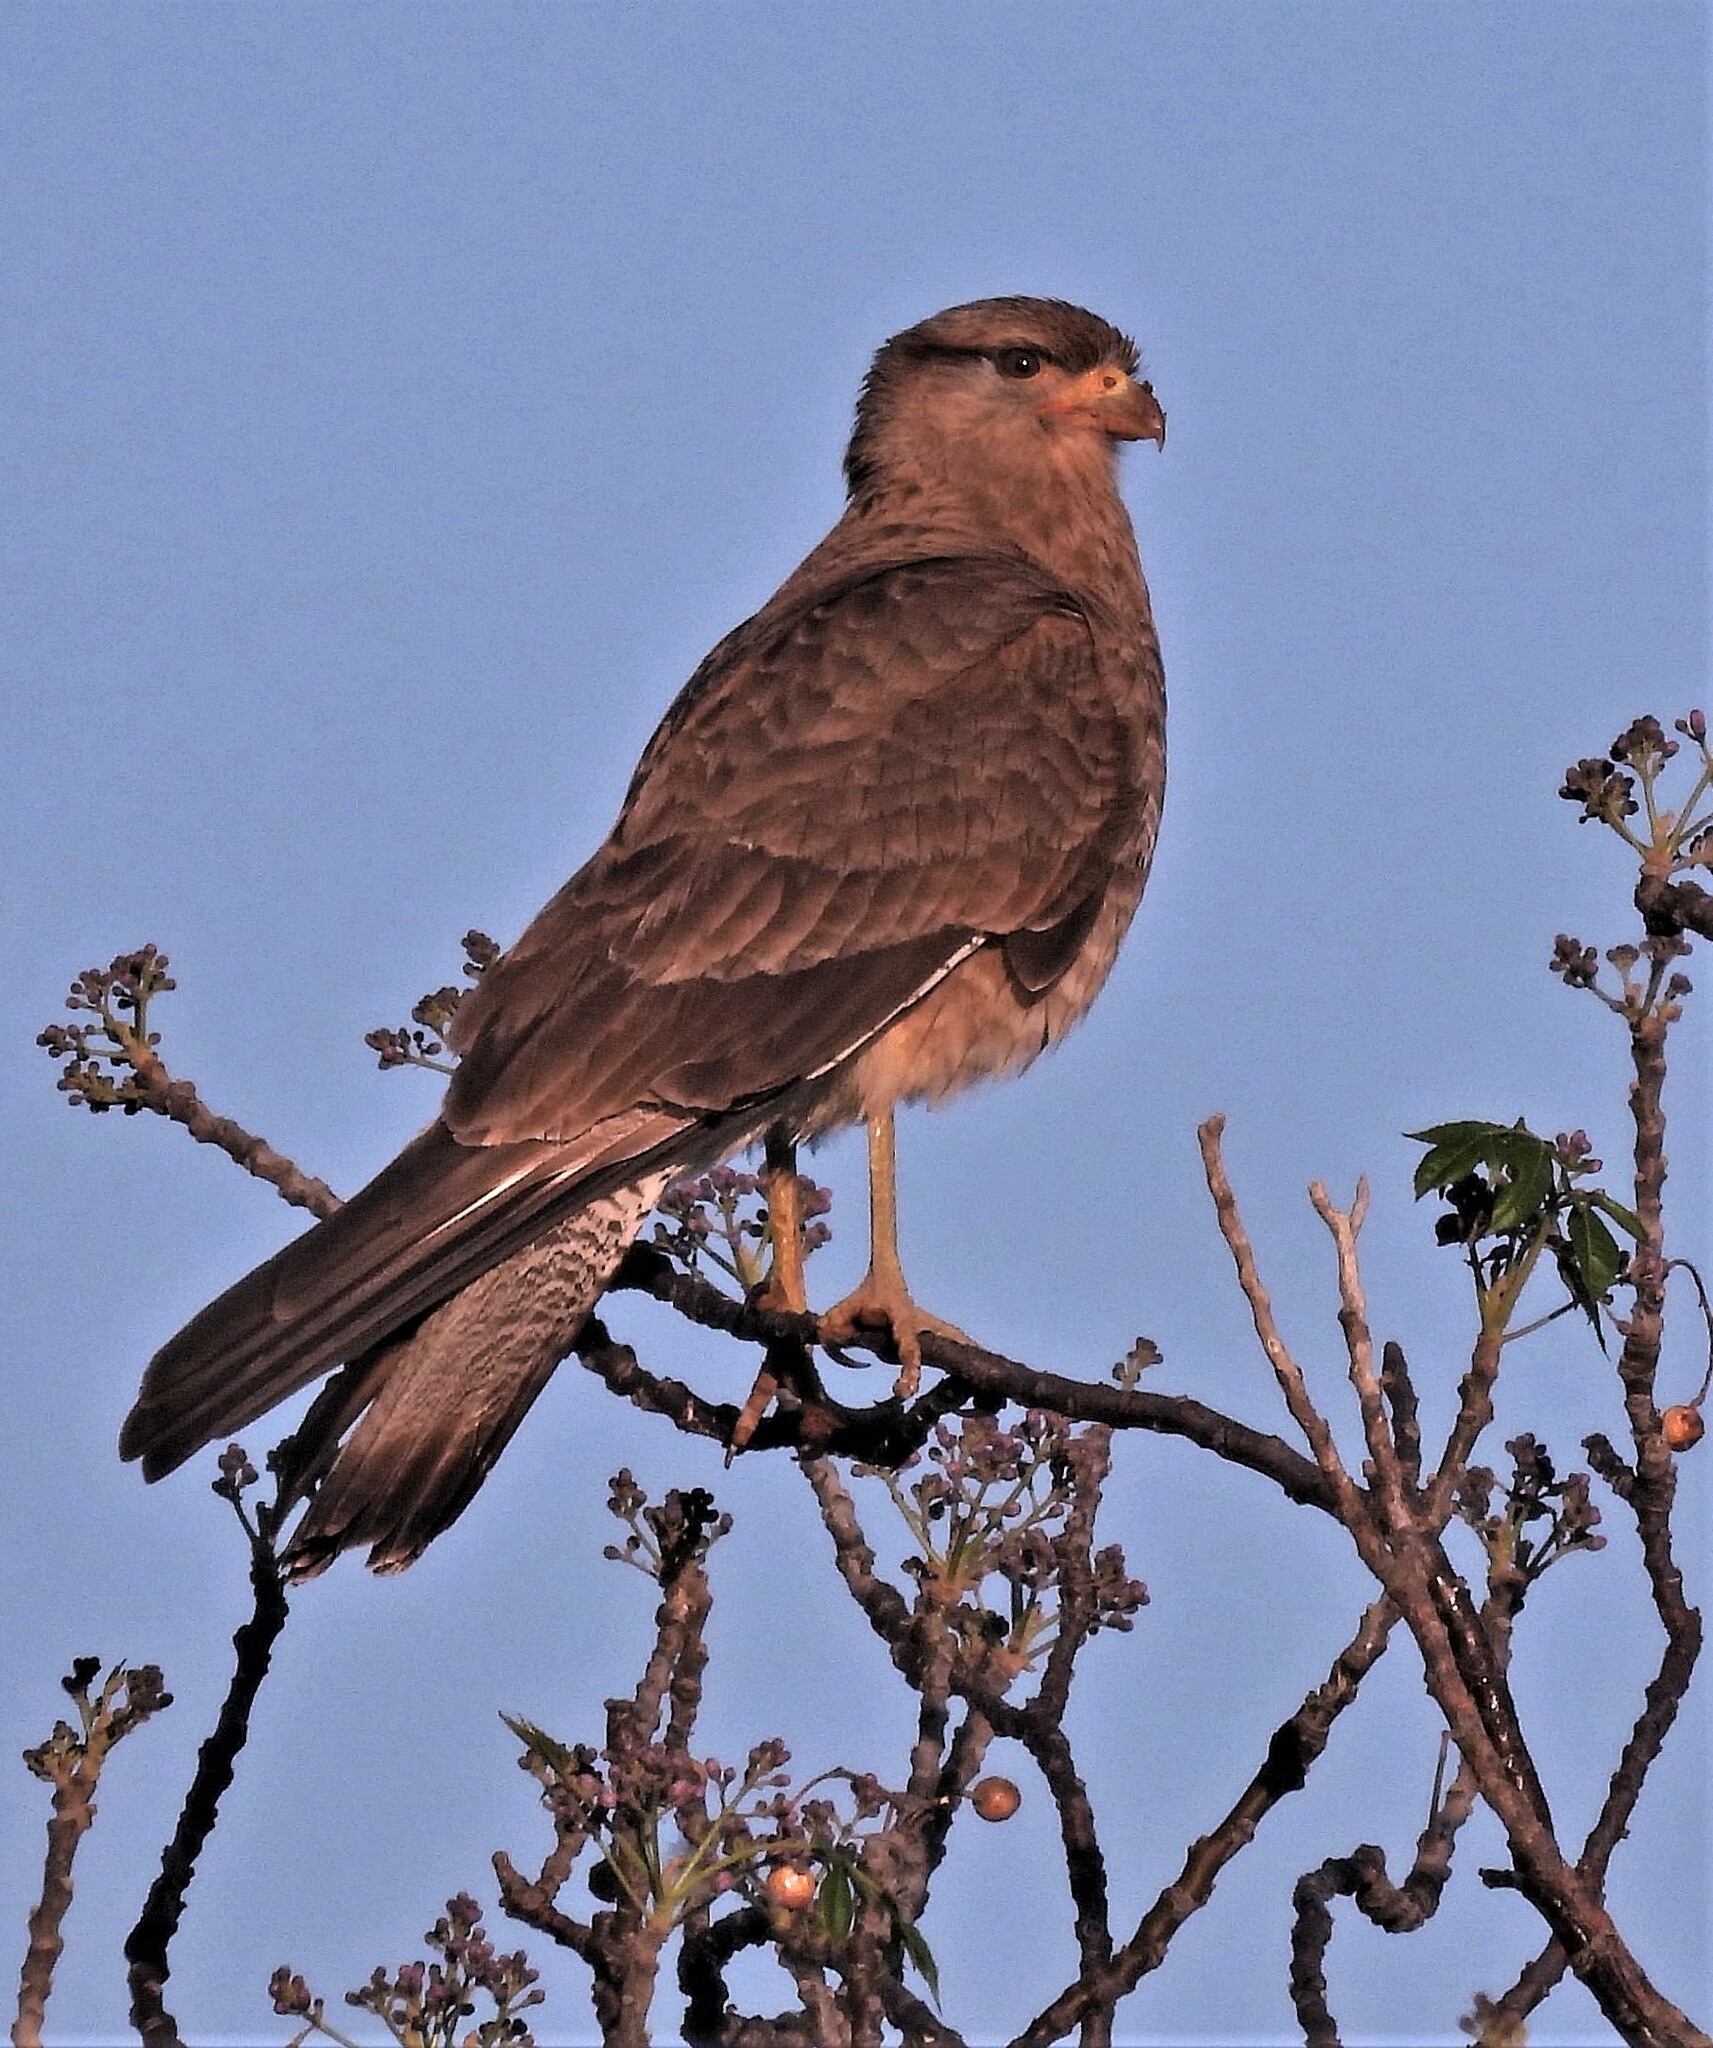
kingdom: Animalia
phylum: Chordata
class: Aves
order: Falconiformes
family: Falconidae
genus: Daptrius
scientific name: Daptrius
